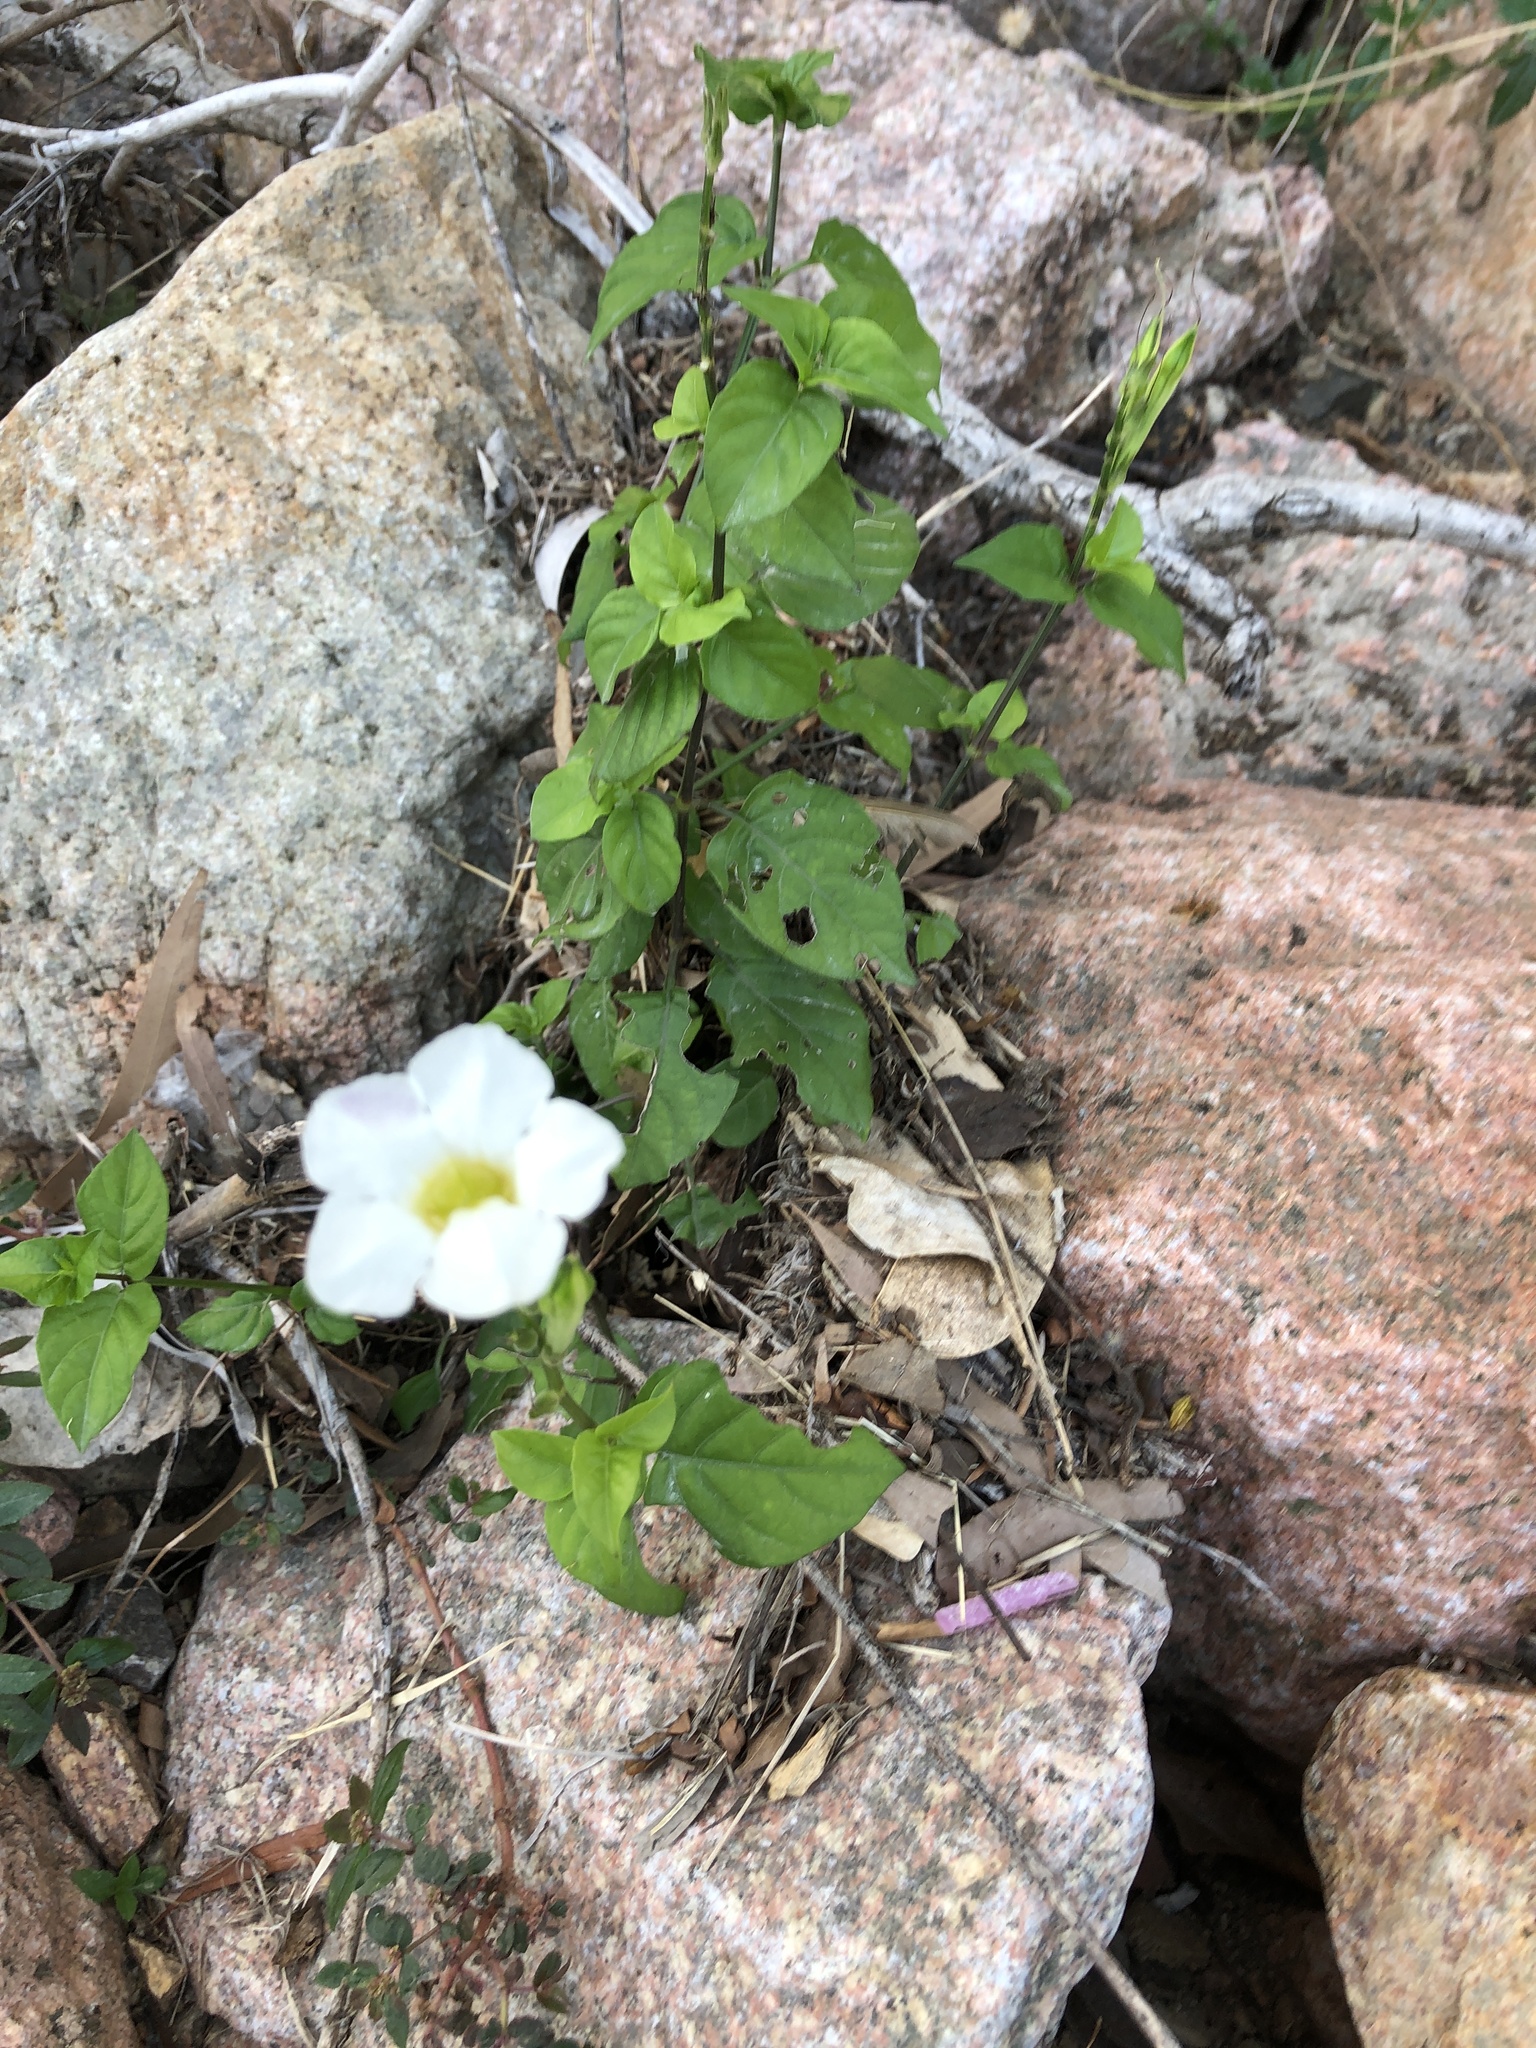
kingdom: Plantae
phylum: Tracheophyta
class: Magnoliopsida
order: Lamiales
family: Acanthaceae
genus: Asystasia
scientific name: Asystasia gangetica
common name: Chinese violet
